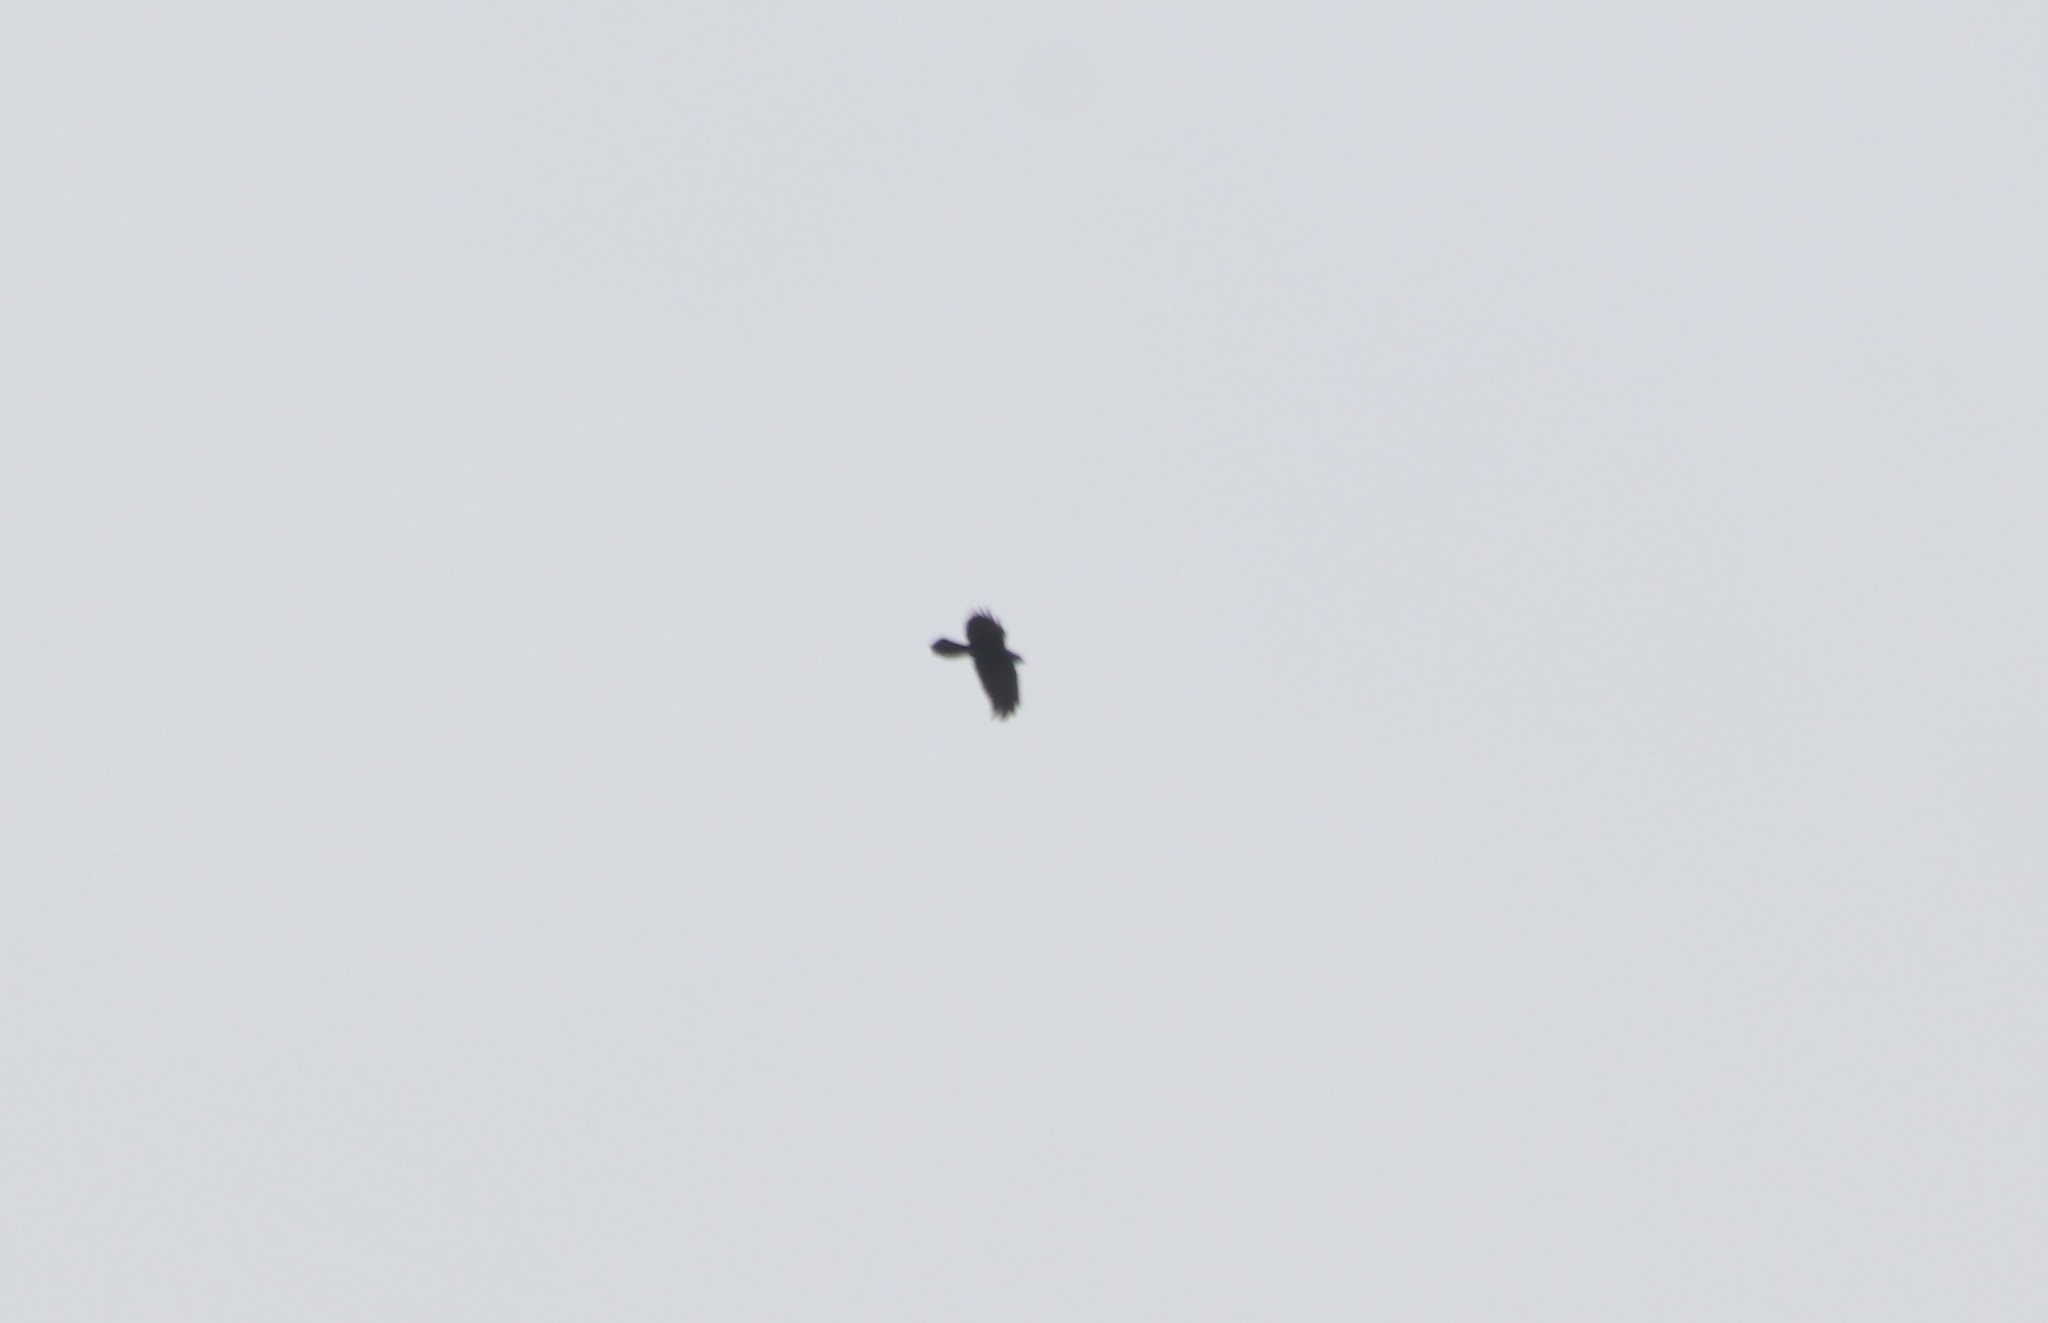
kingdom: Animalia
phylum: Chordata
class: Aves
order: Passeriformes
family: Corvidae
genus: Corvus
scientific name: Corvus corax
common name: Common raven
